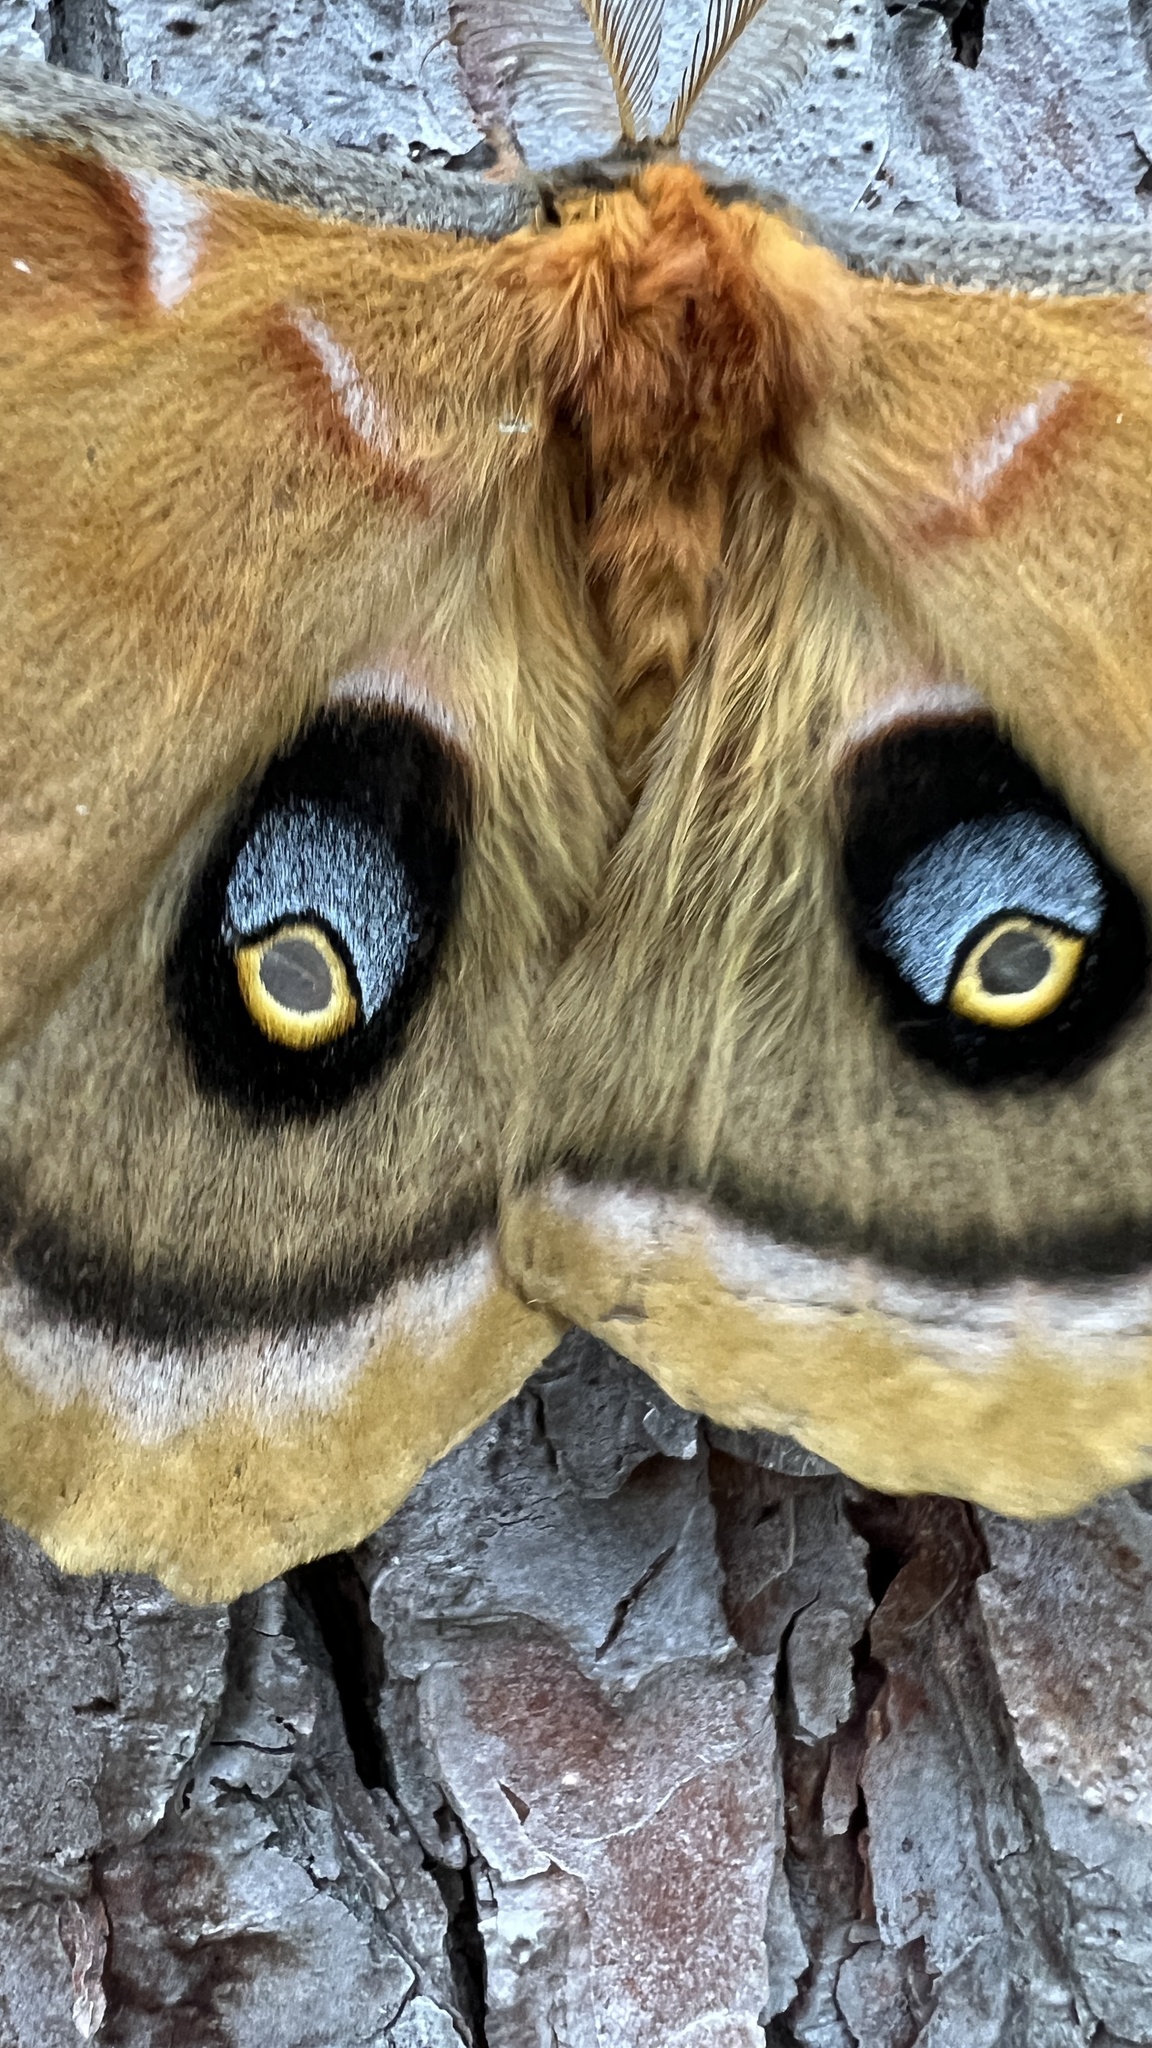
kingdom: Animalia
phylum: Arthropoda
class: Insecta
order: Lepidoptera
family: Saturniidae
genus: Antheraea
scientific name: Antheraea polyphemus
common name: Polyphemus moth
